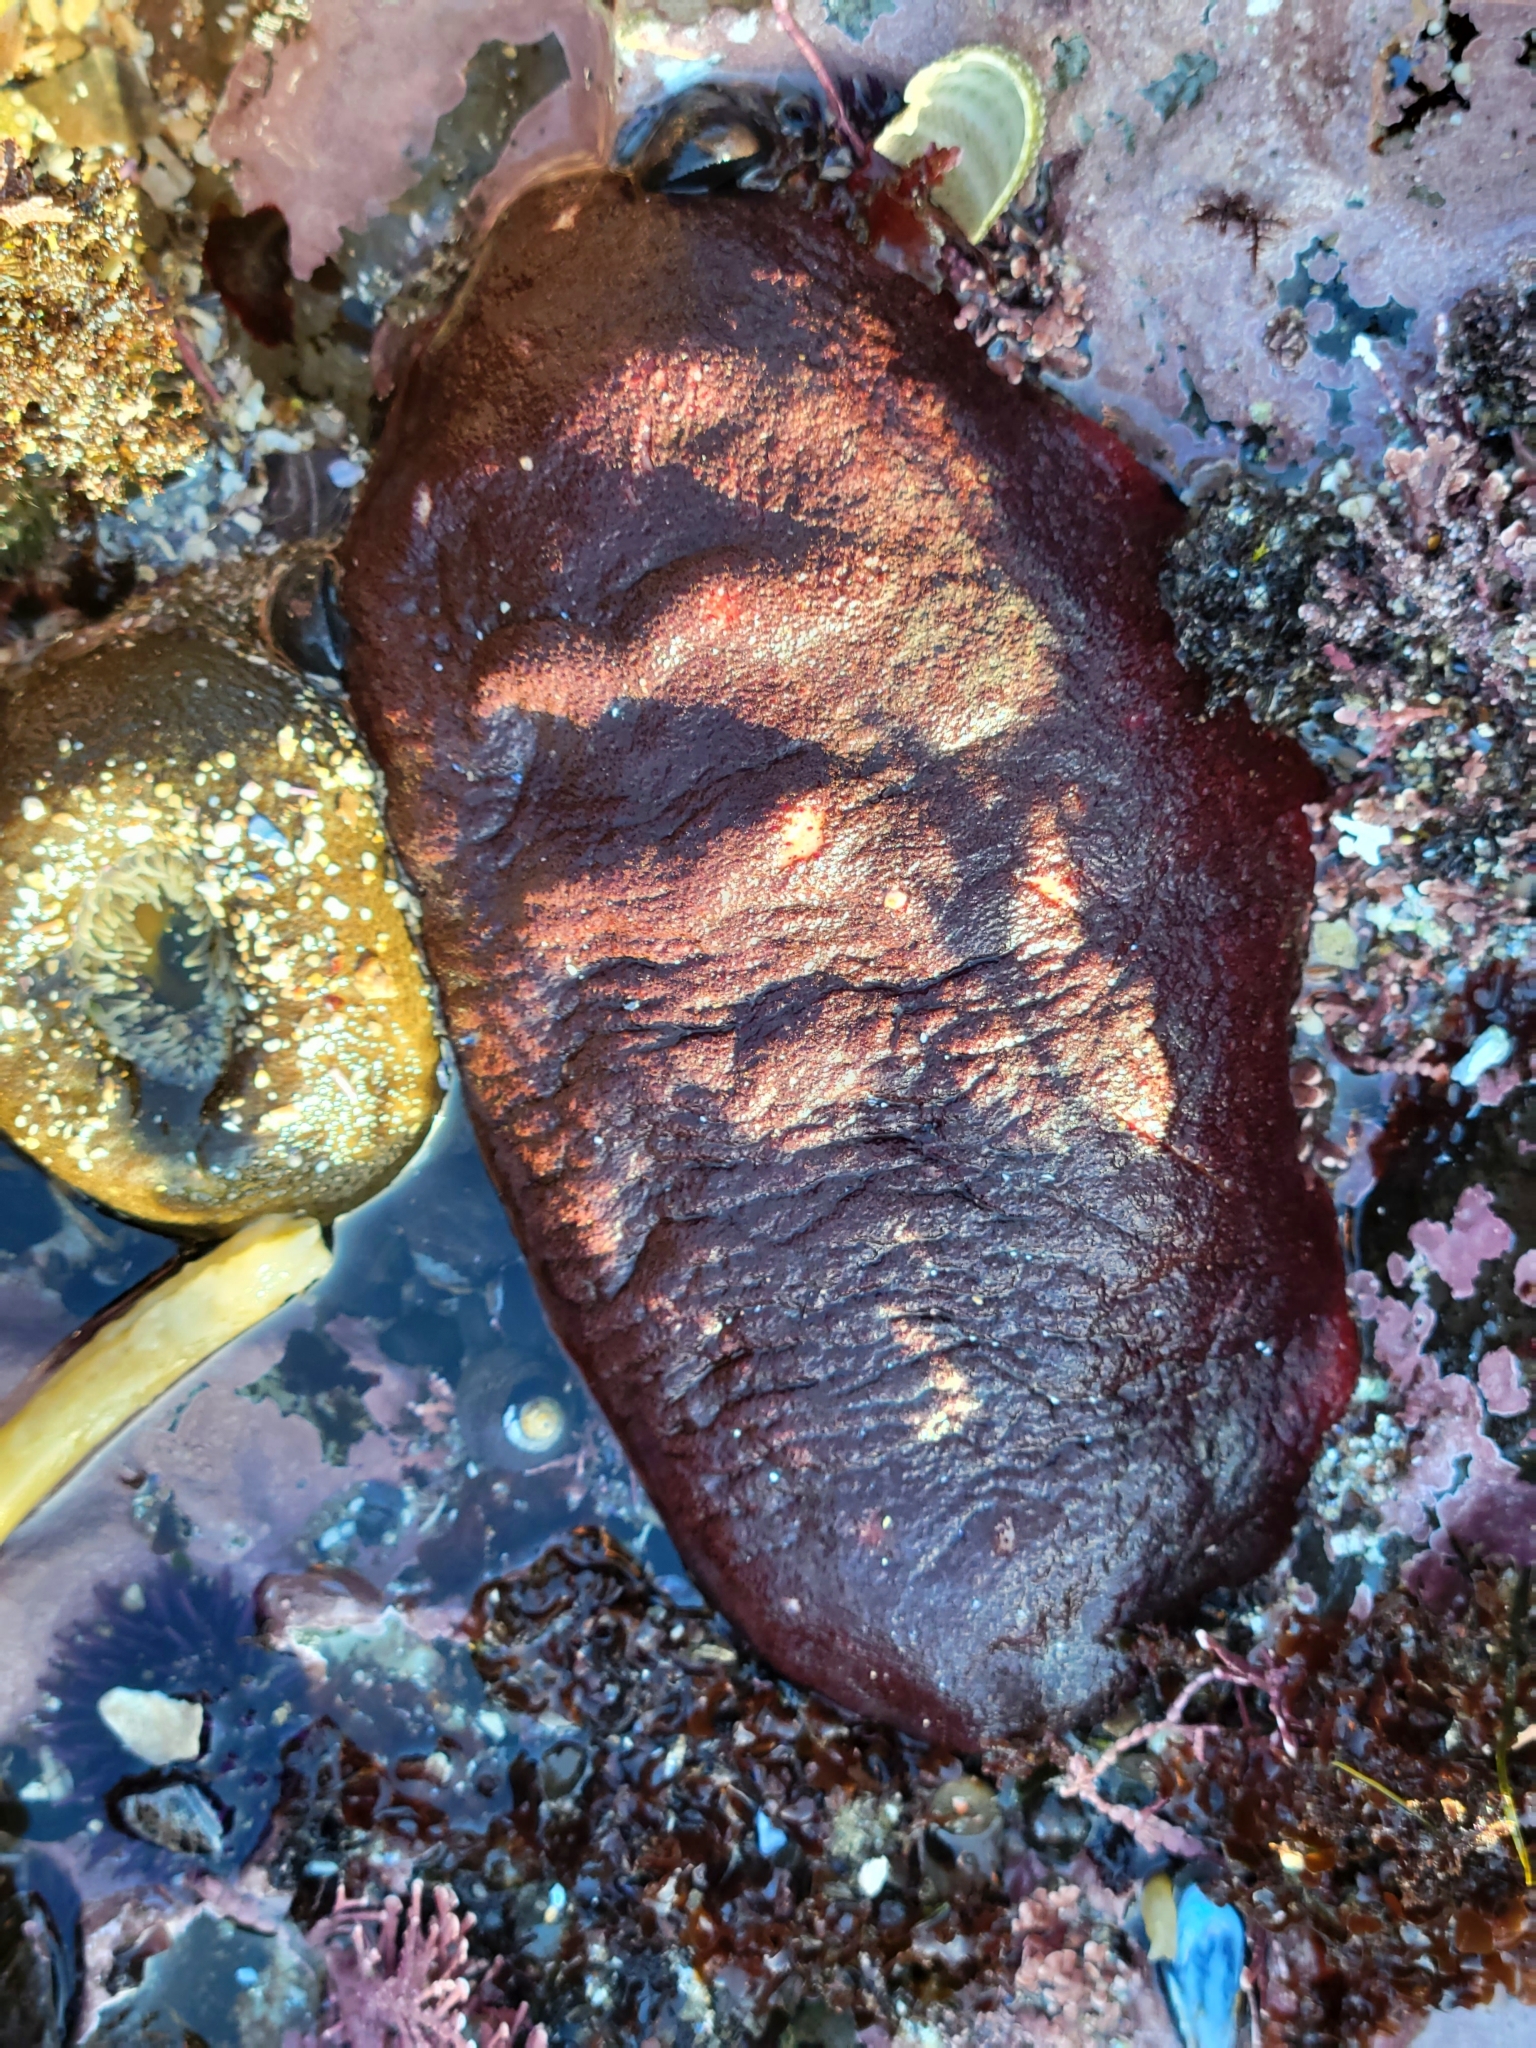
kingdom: Animalia
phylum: Mollusca
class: Polyplacophora
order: Chitonida
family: Acanthochitonidae
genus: Cryptochiton
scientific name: Cryptochiton stelleri
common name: Giant pacific chiton
